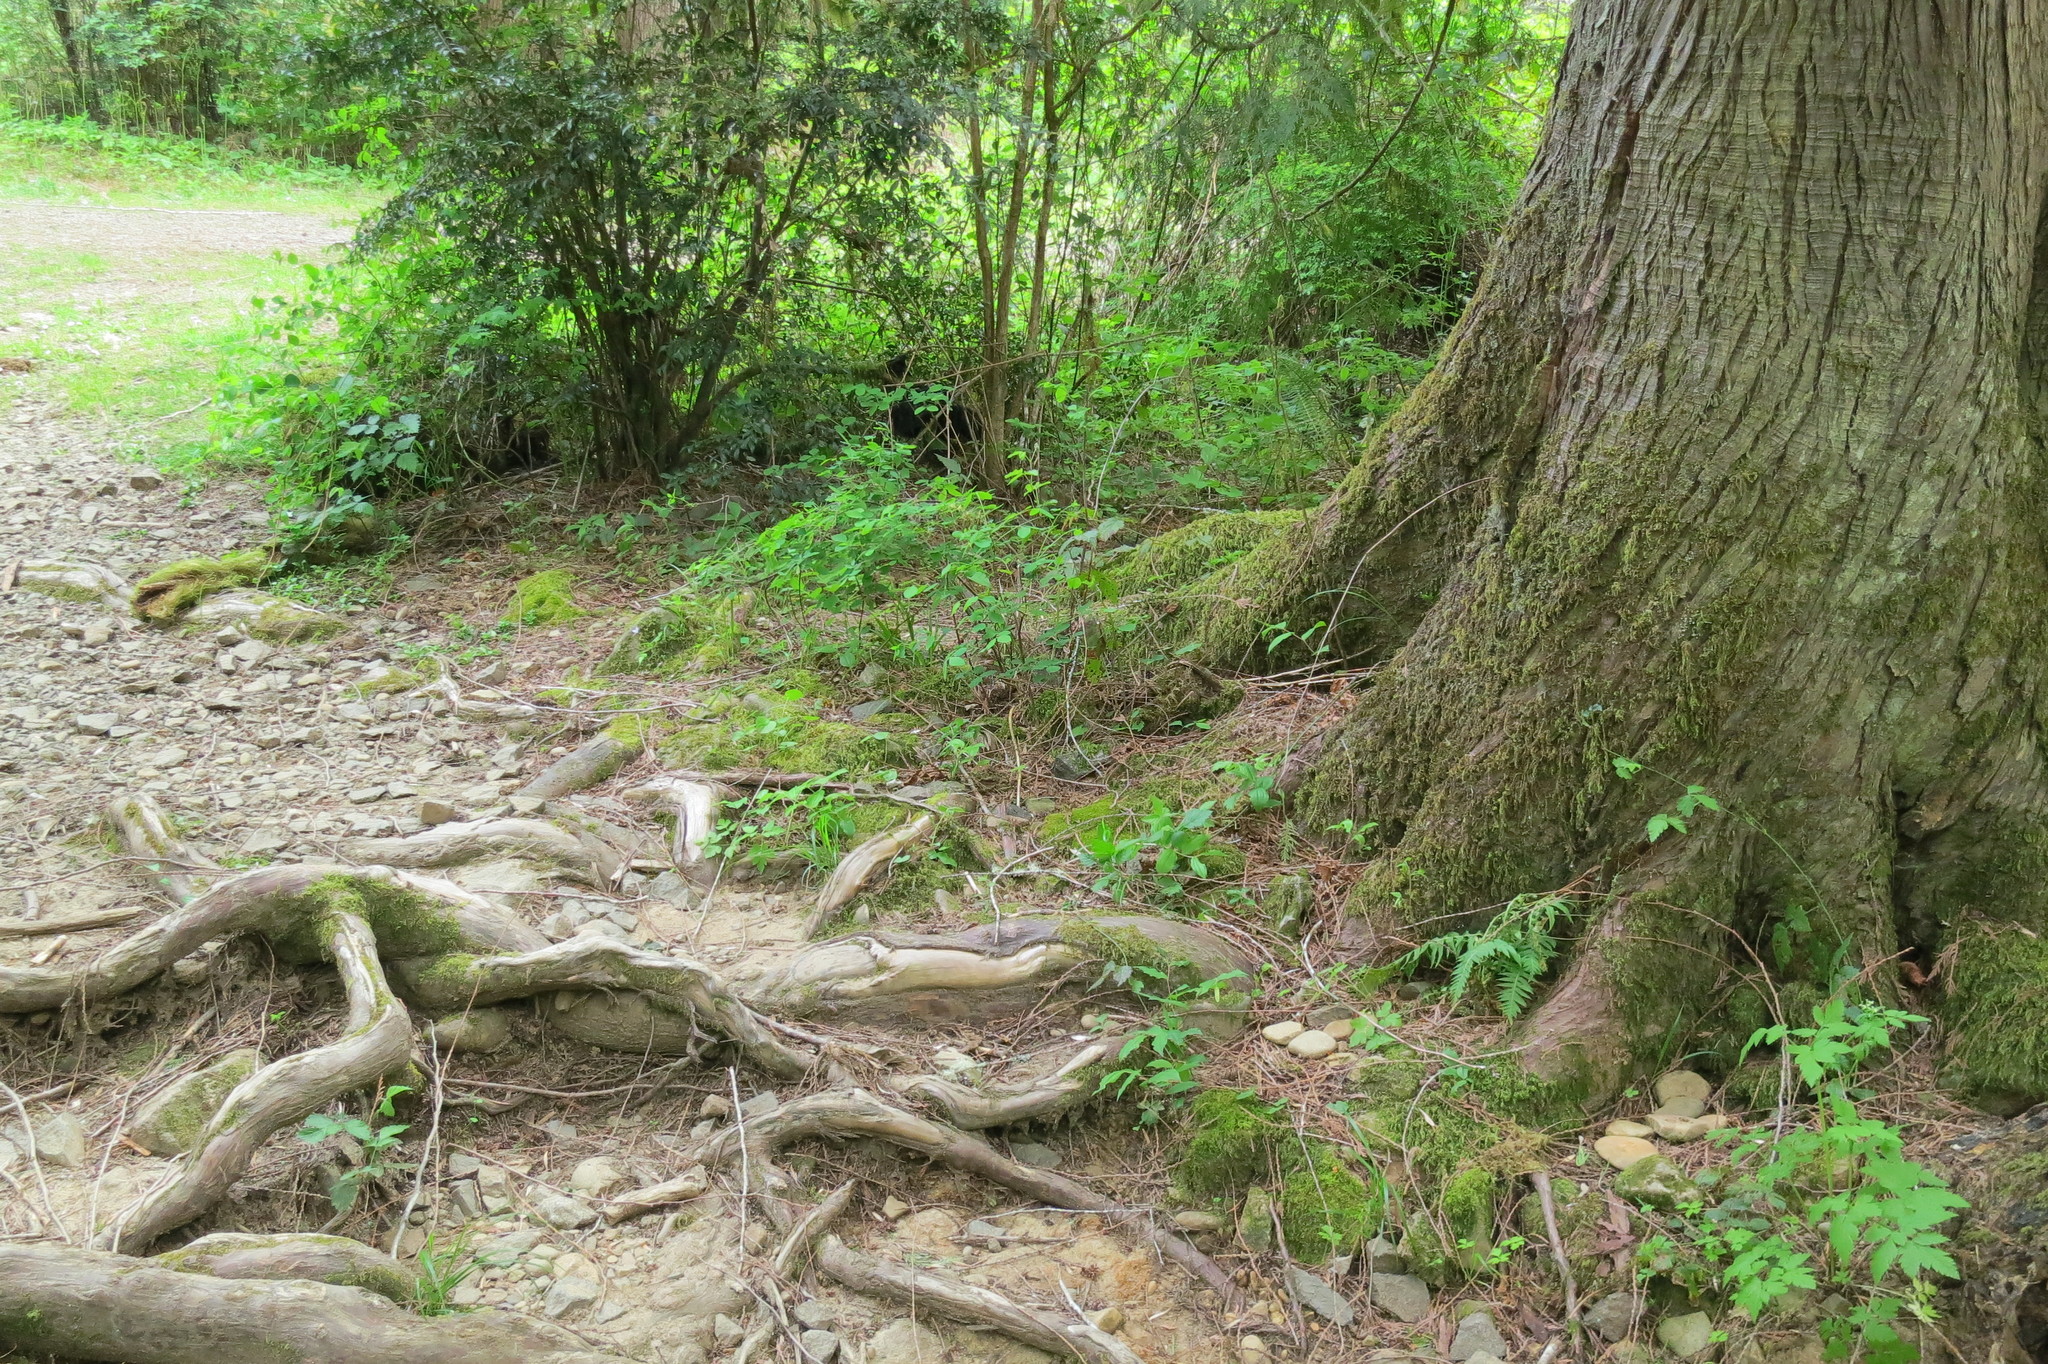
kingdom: Plantae
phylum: Tracheophyta
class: Magnoliopsida
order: Ranunculales
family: Ranunculaceae
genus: Anemone
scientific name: Anemone
